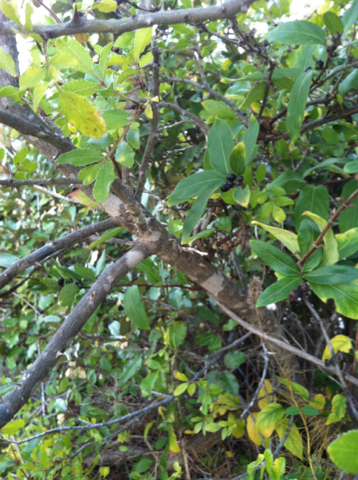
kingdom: Plantae
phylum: Tracheophyta
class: Magnoliopsida
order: Sapindales
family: Rutaceae
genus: Zanthoxylum
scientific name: Zanthoxylum clava-herculis
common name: Hercules'-club
